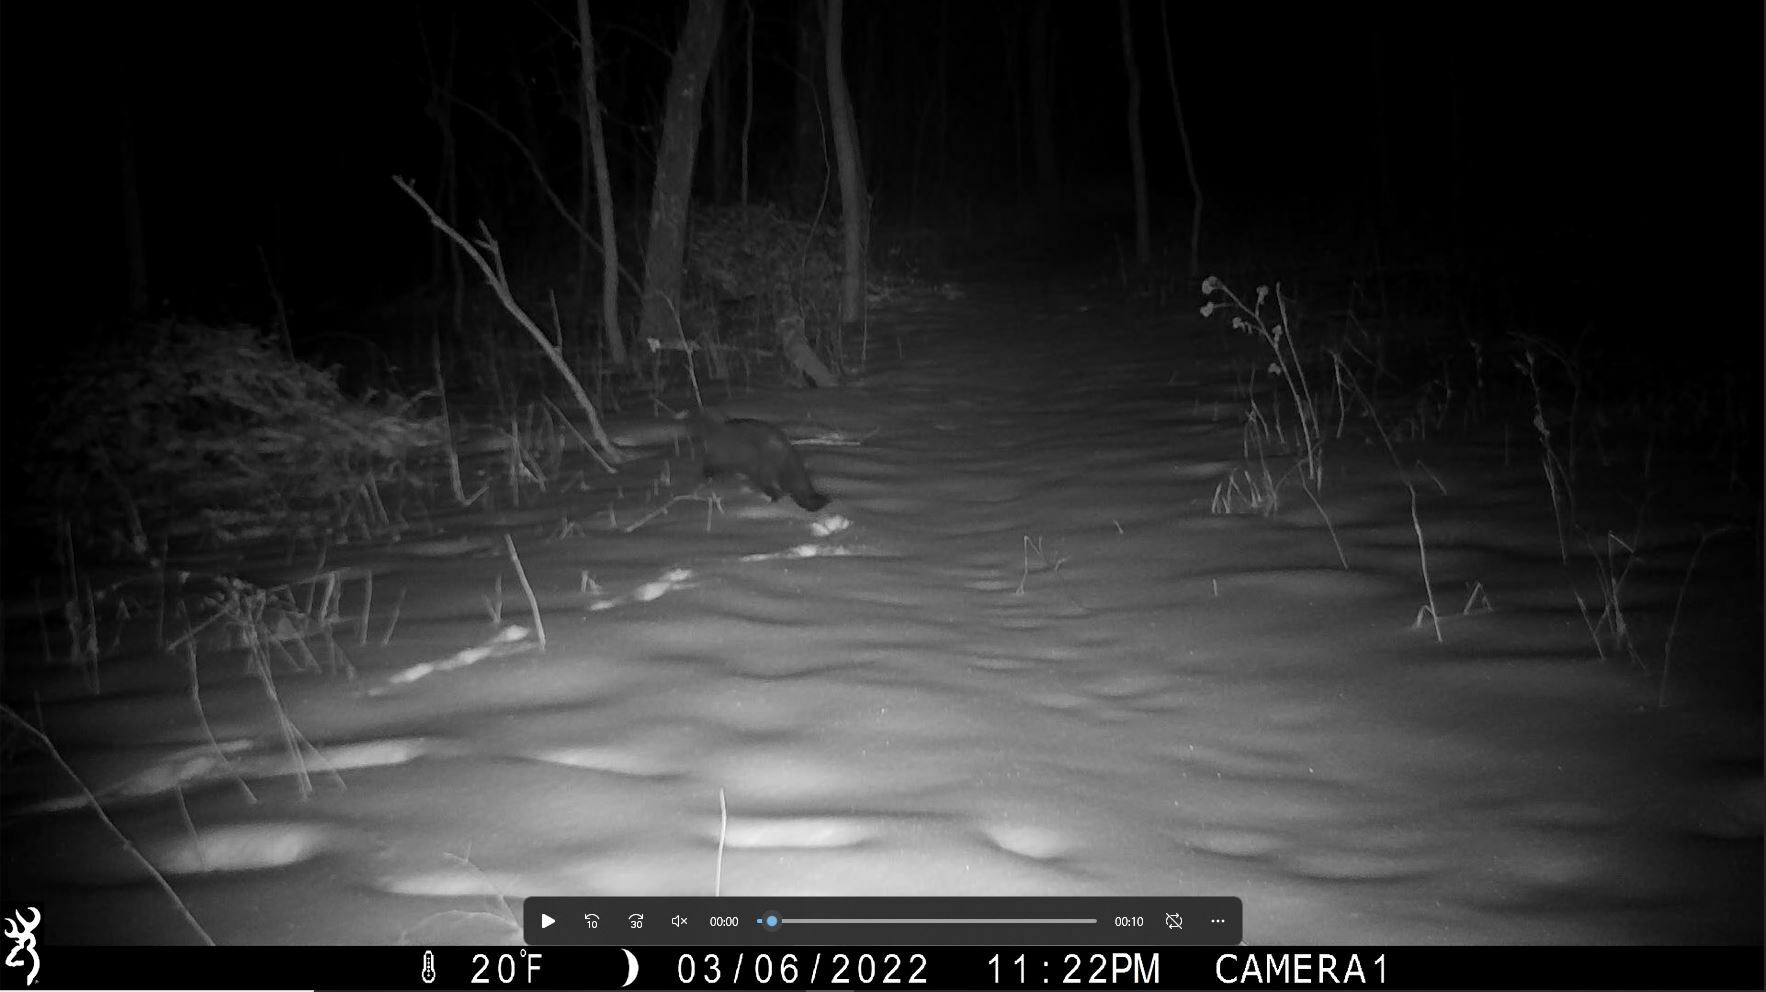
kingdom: Animalia
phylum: Chordata
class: Mammalia
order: Carnivora
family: Mustelidae
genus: Pekania
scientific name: Pekania pennanti
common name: Fisher
